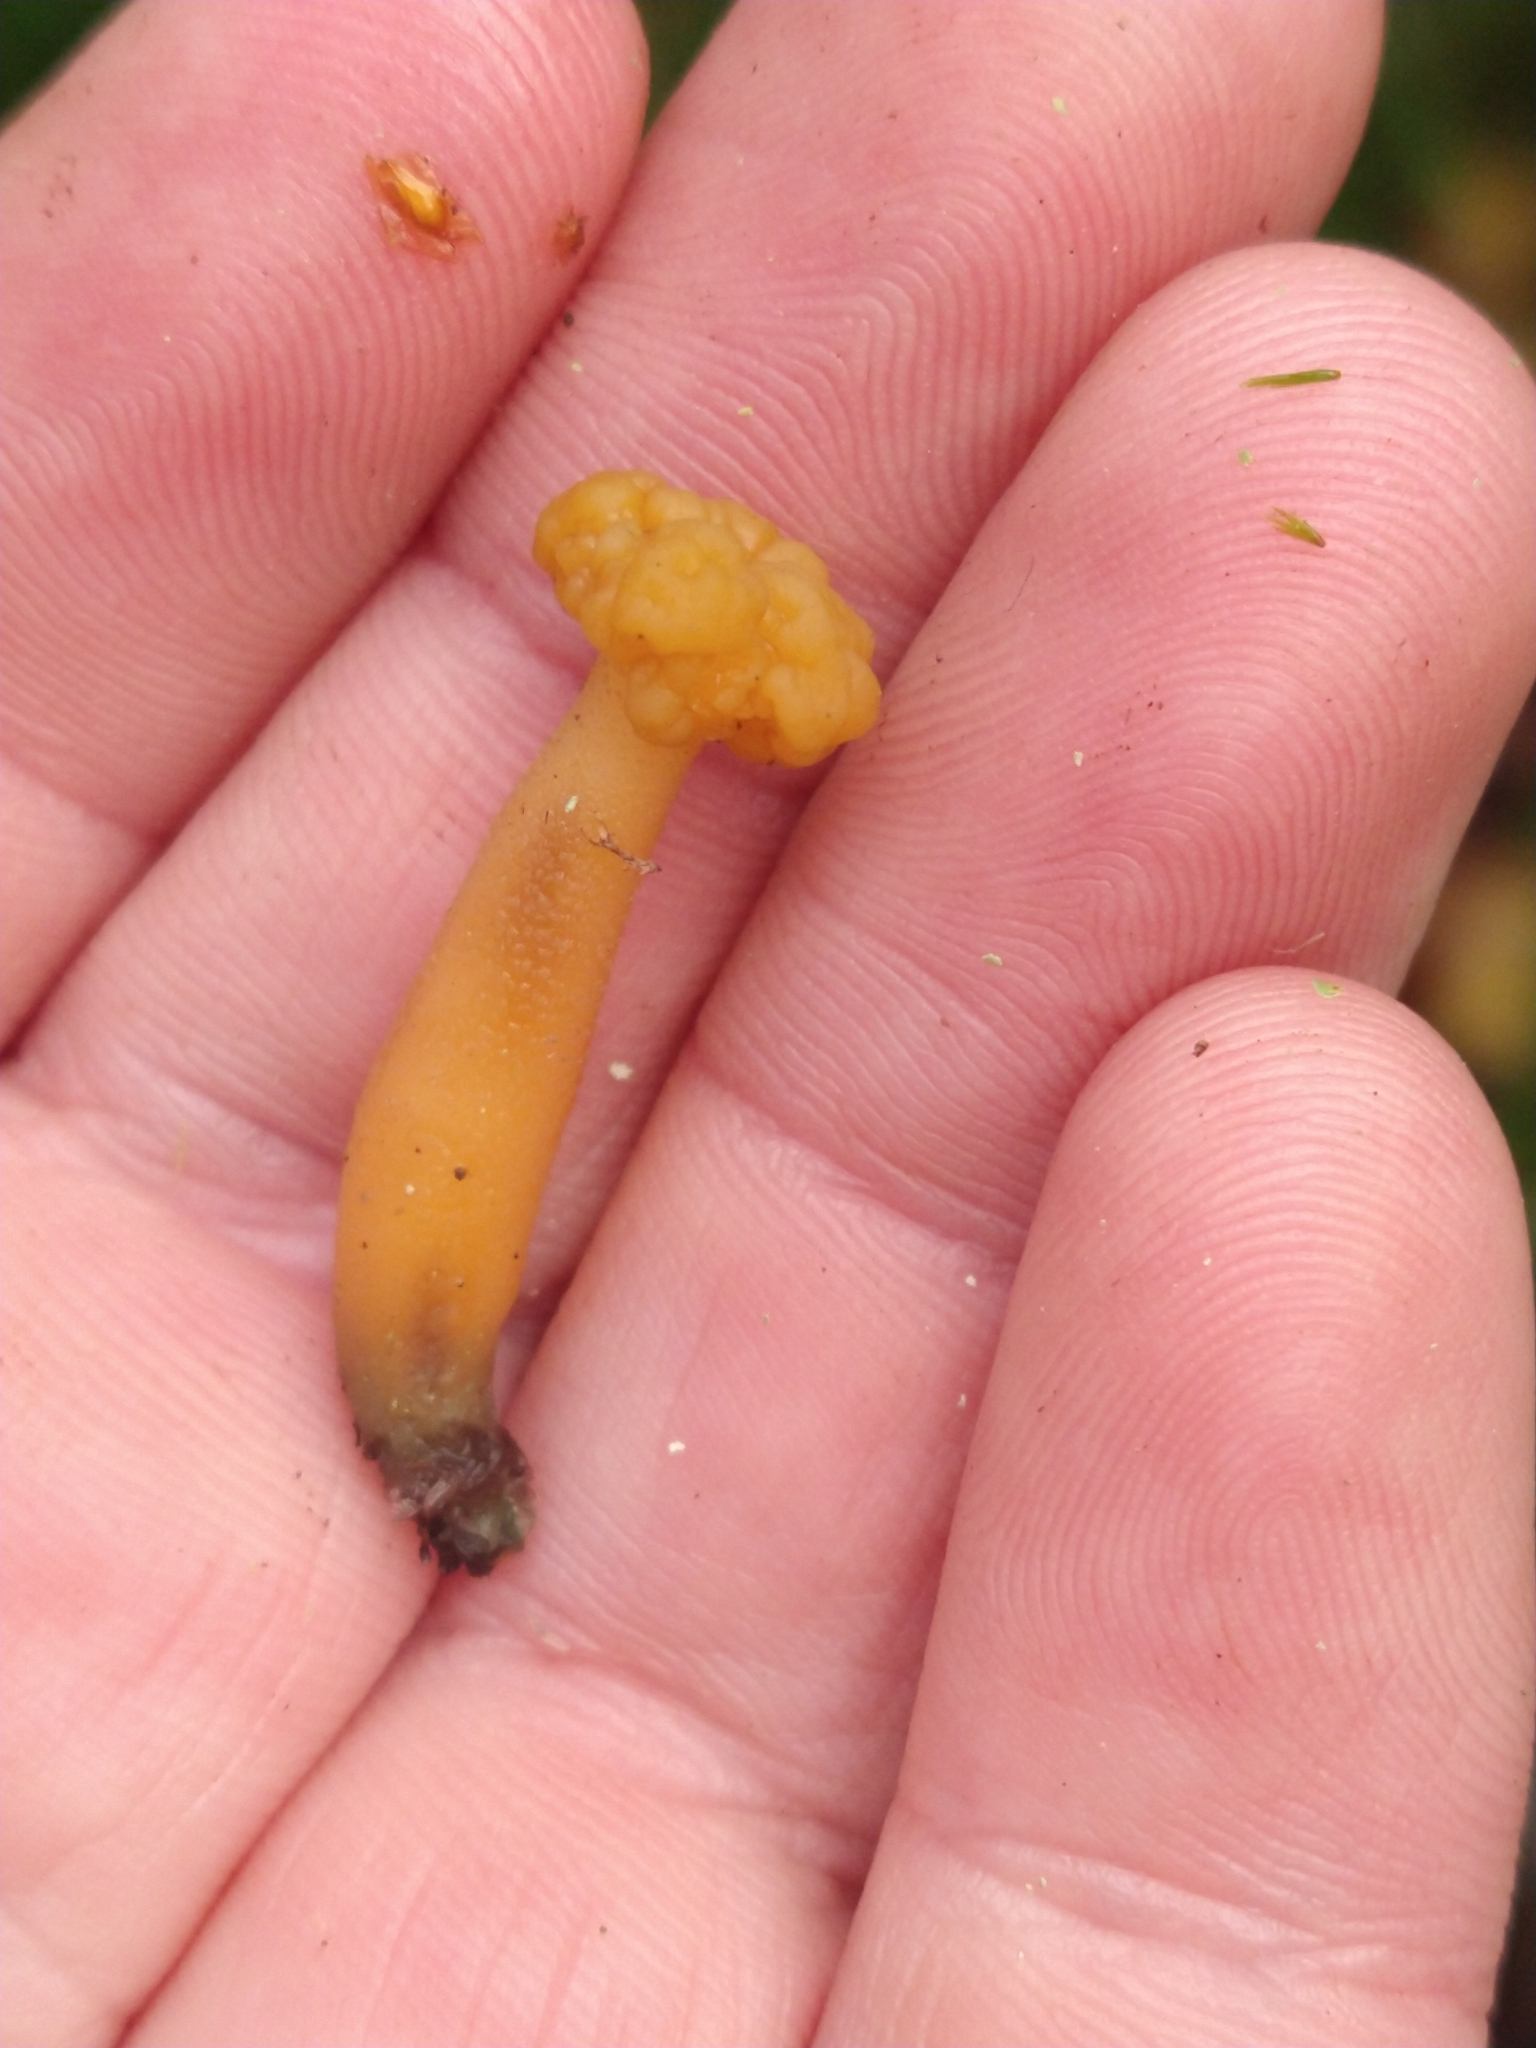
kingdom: Fungi
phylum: Ascomycota
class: Leotiomycetes
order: Leotiales
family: Leotiaceae
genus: Leotia
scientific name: Leotia lubrica
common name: Jellybaby
